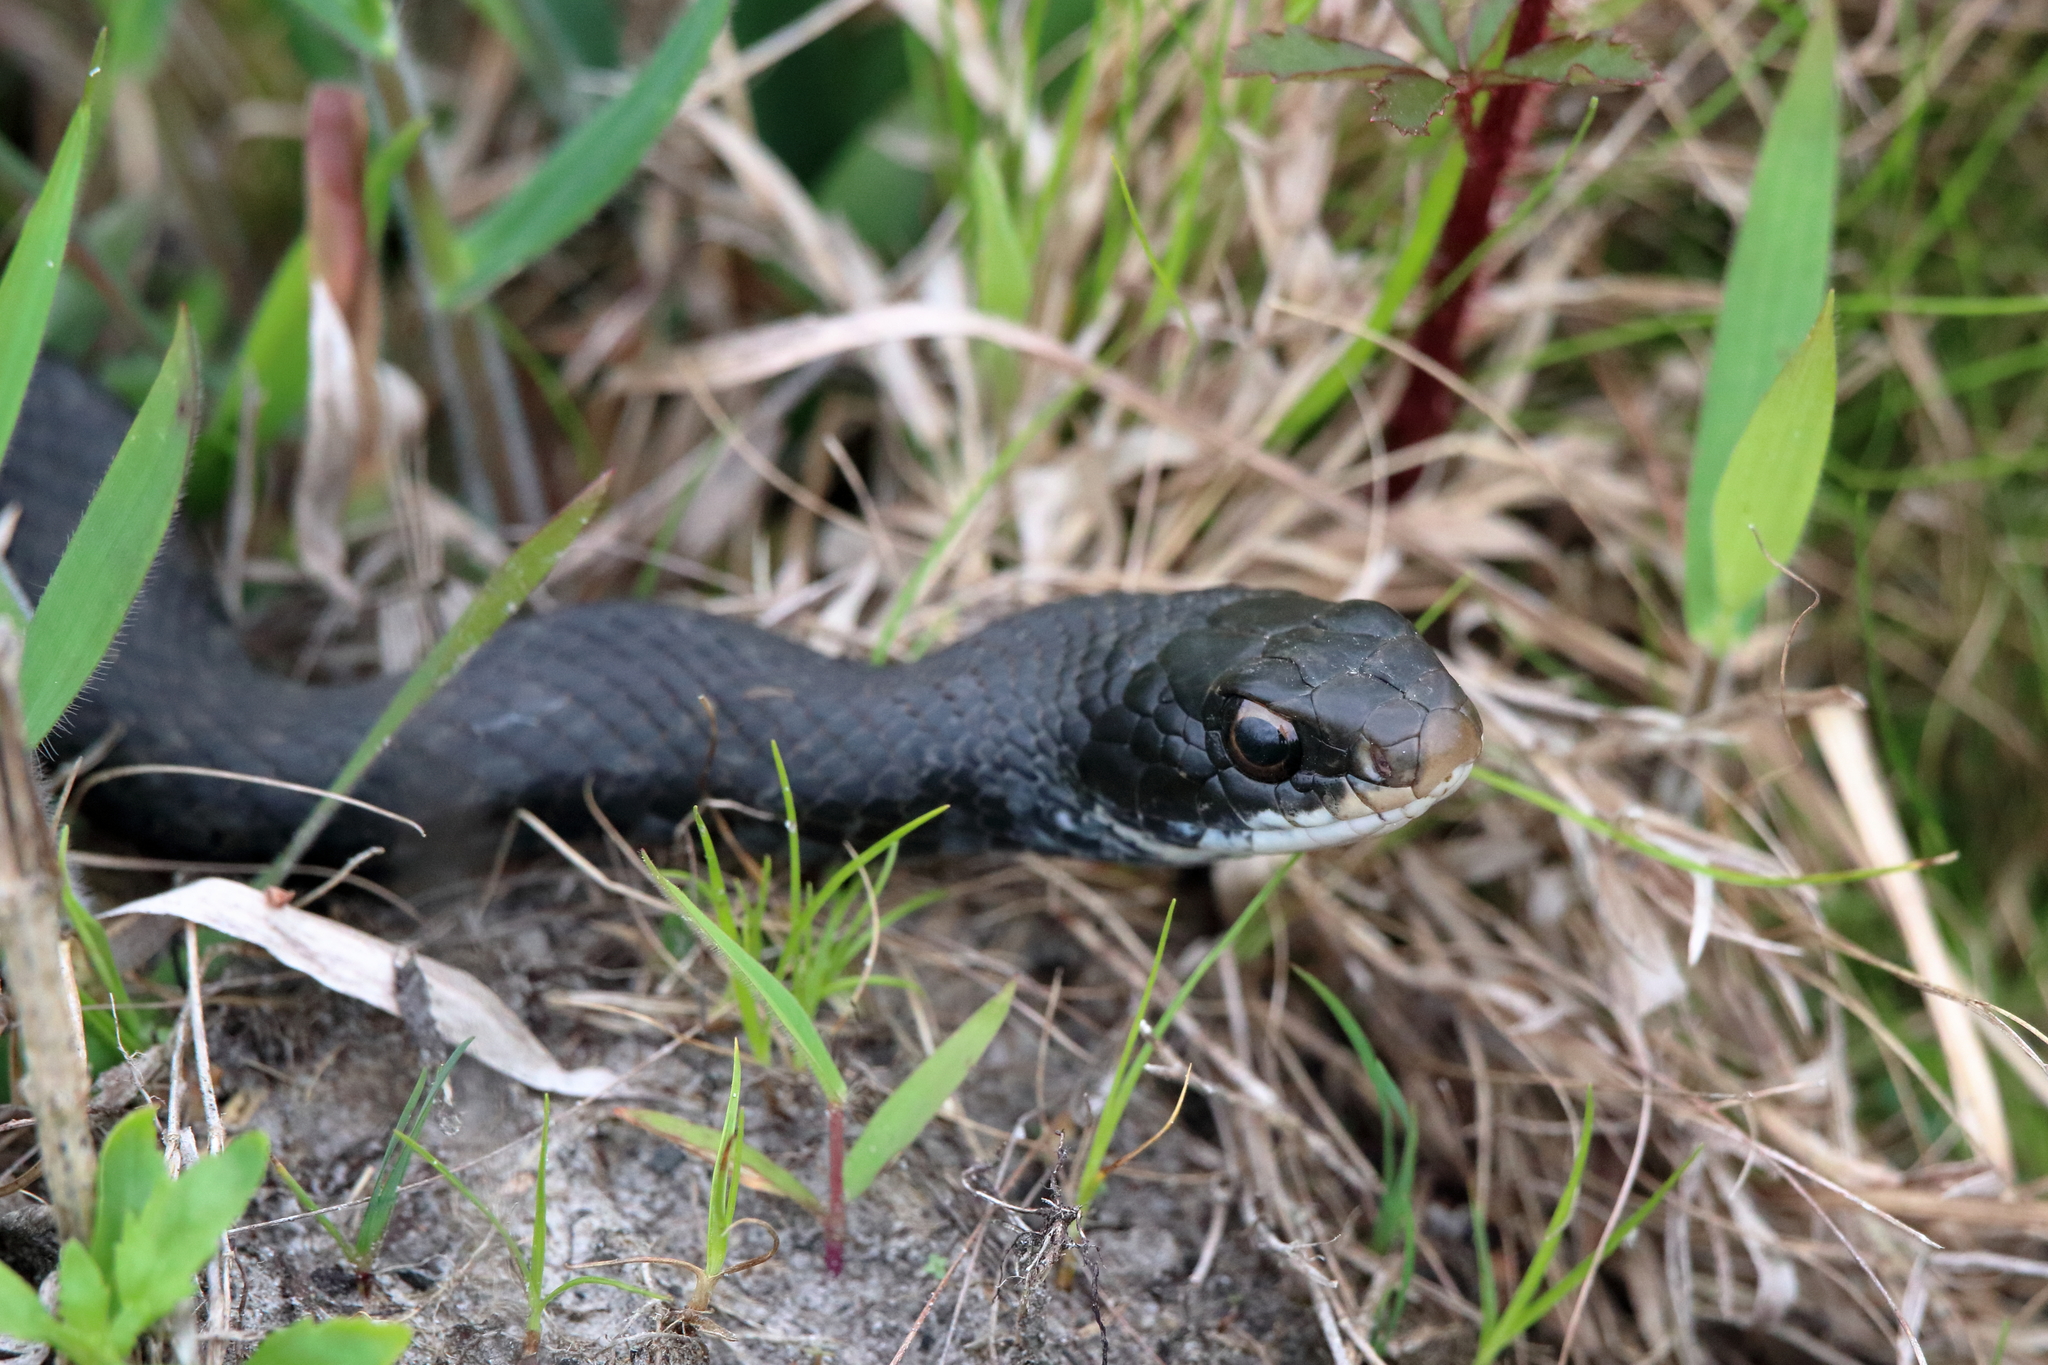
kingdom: Animalia
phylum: Chordata
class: Squamata
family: Colubridae
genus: Coluber
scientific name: Coluber constrictor
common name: Eastern racer
